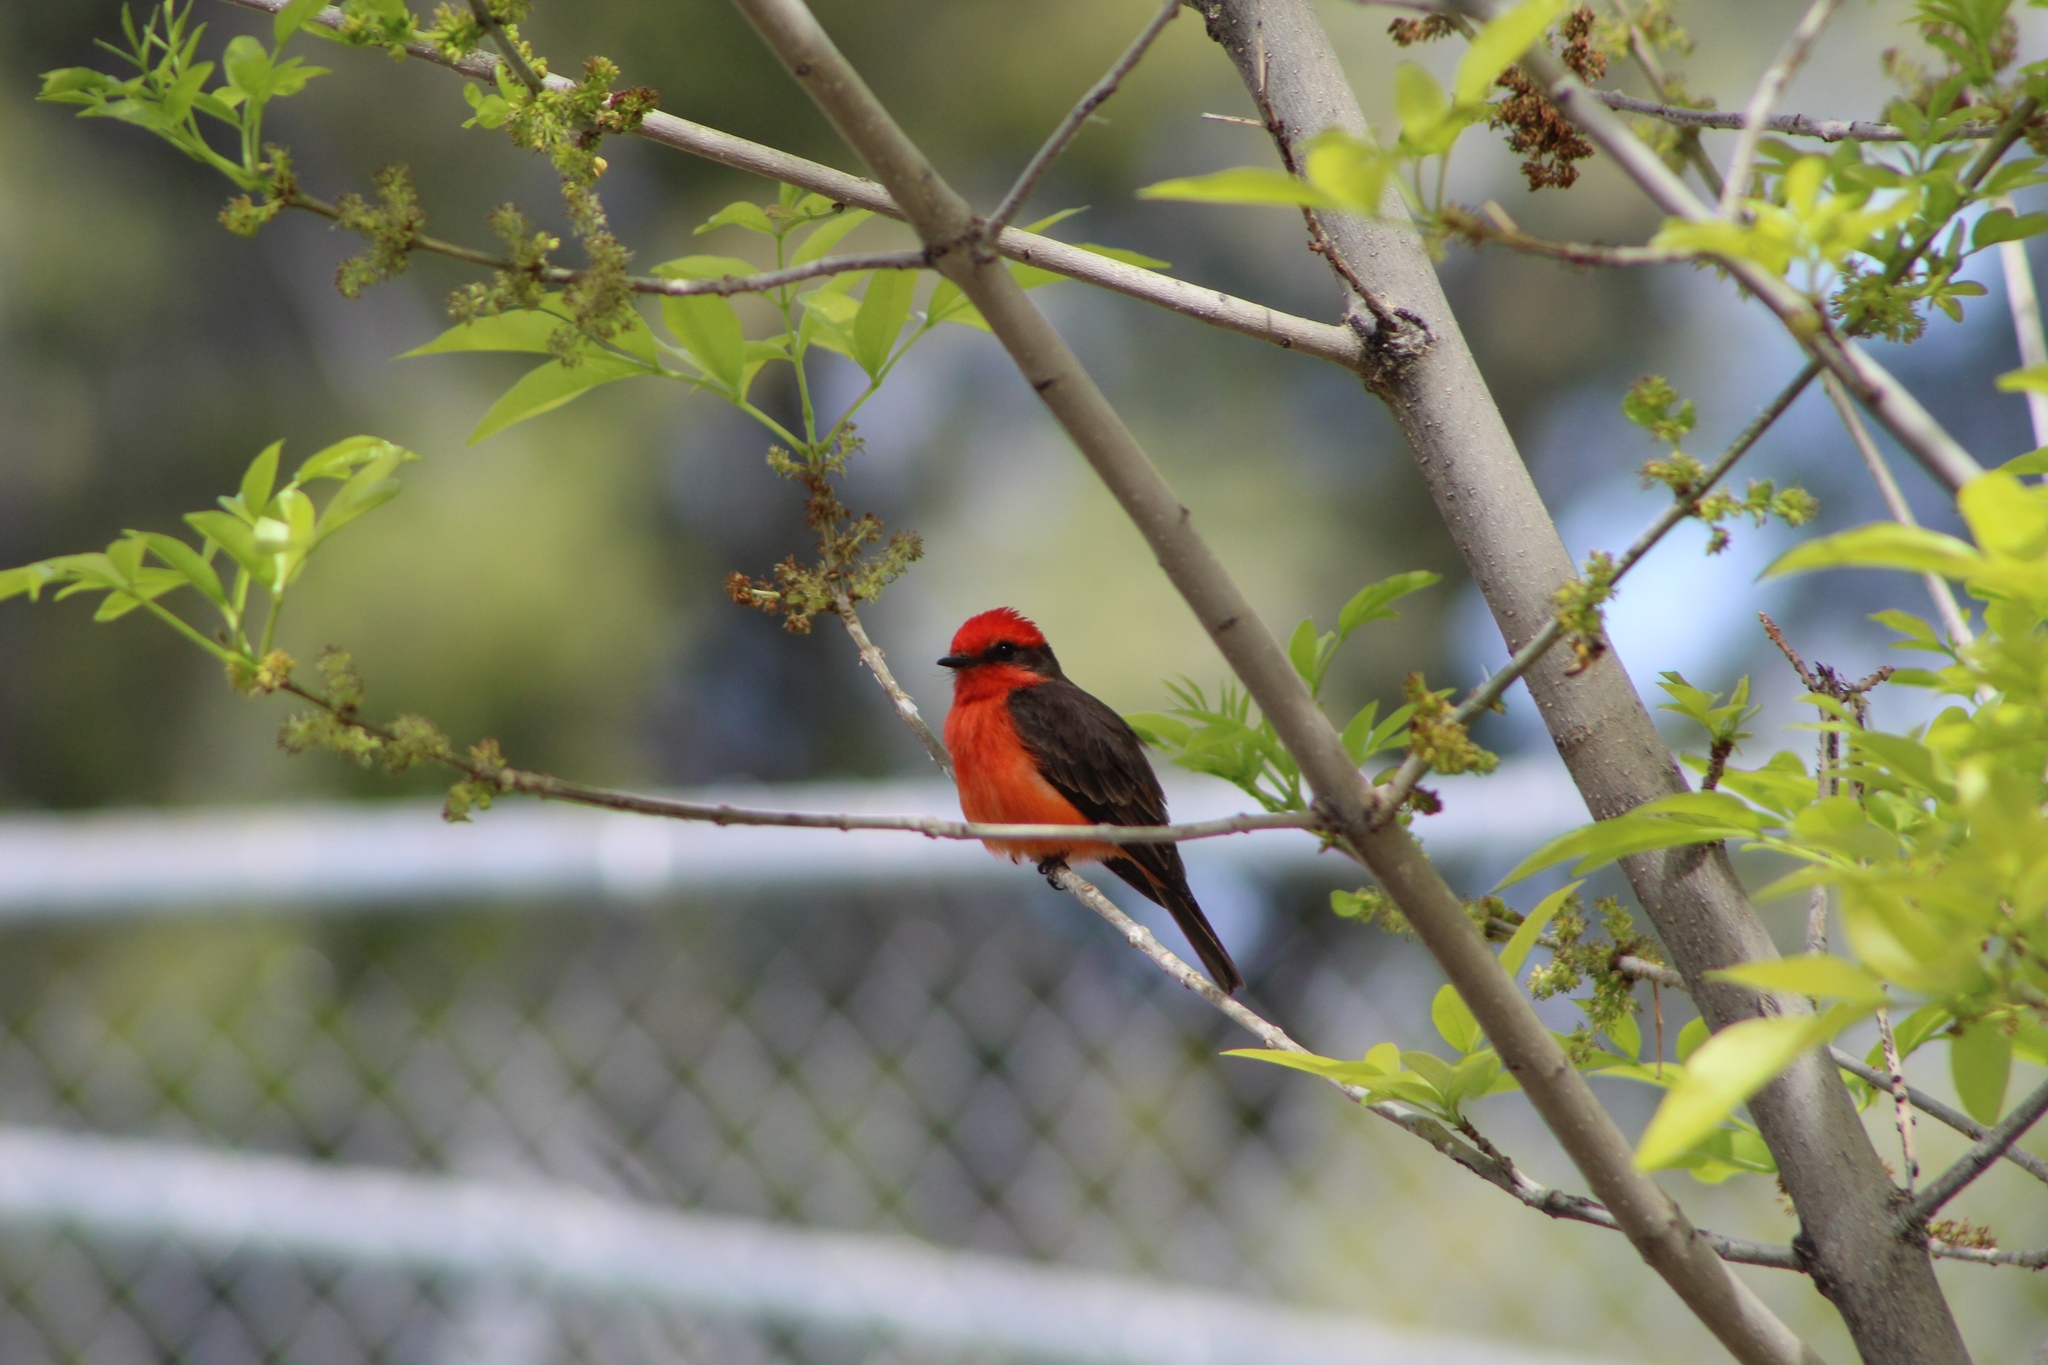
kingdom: Animalia
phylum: Chordata
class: Aves
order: Passeriformes
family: Tyrannidae
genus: Pyrocephalus
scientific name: Pyrocephalus rubinus
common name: Vermilion flycatcher
